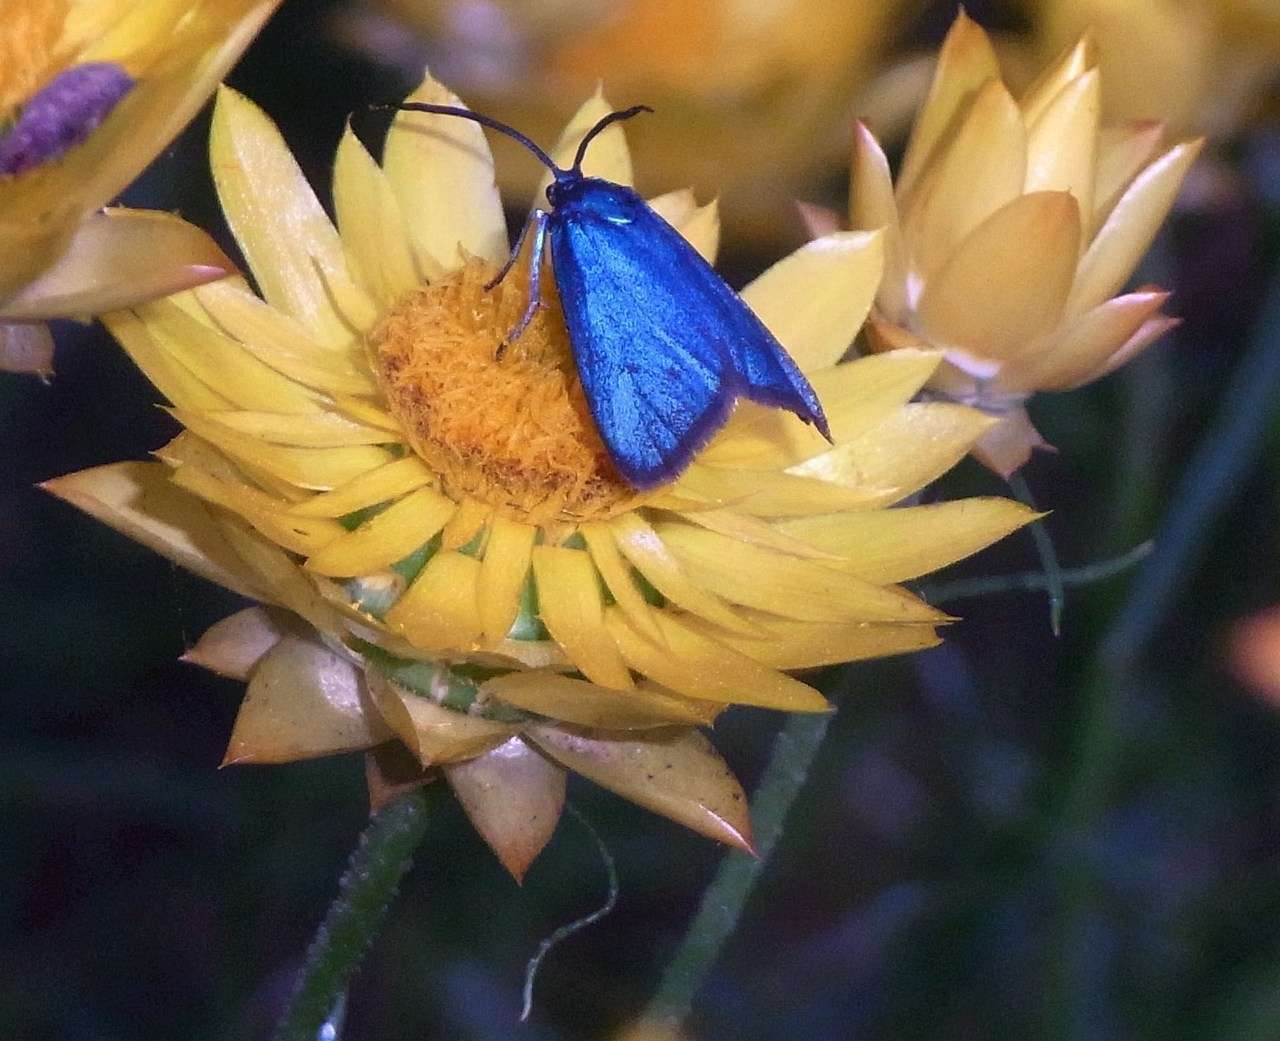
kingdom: Plantae
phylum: Tracheophyta
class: Magnoliopsida
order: Asterales
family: Asteraceae
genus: Xerochrysum
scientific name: Xerochrysum viscosum
